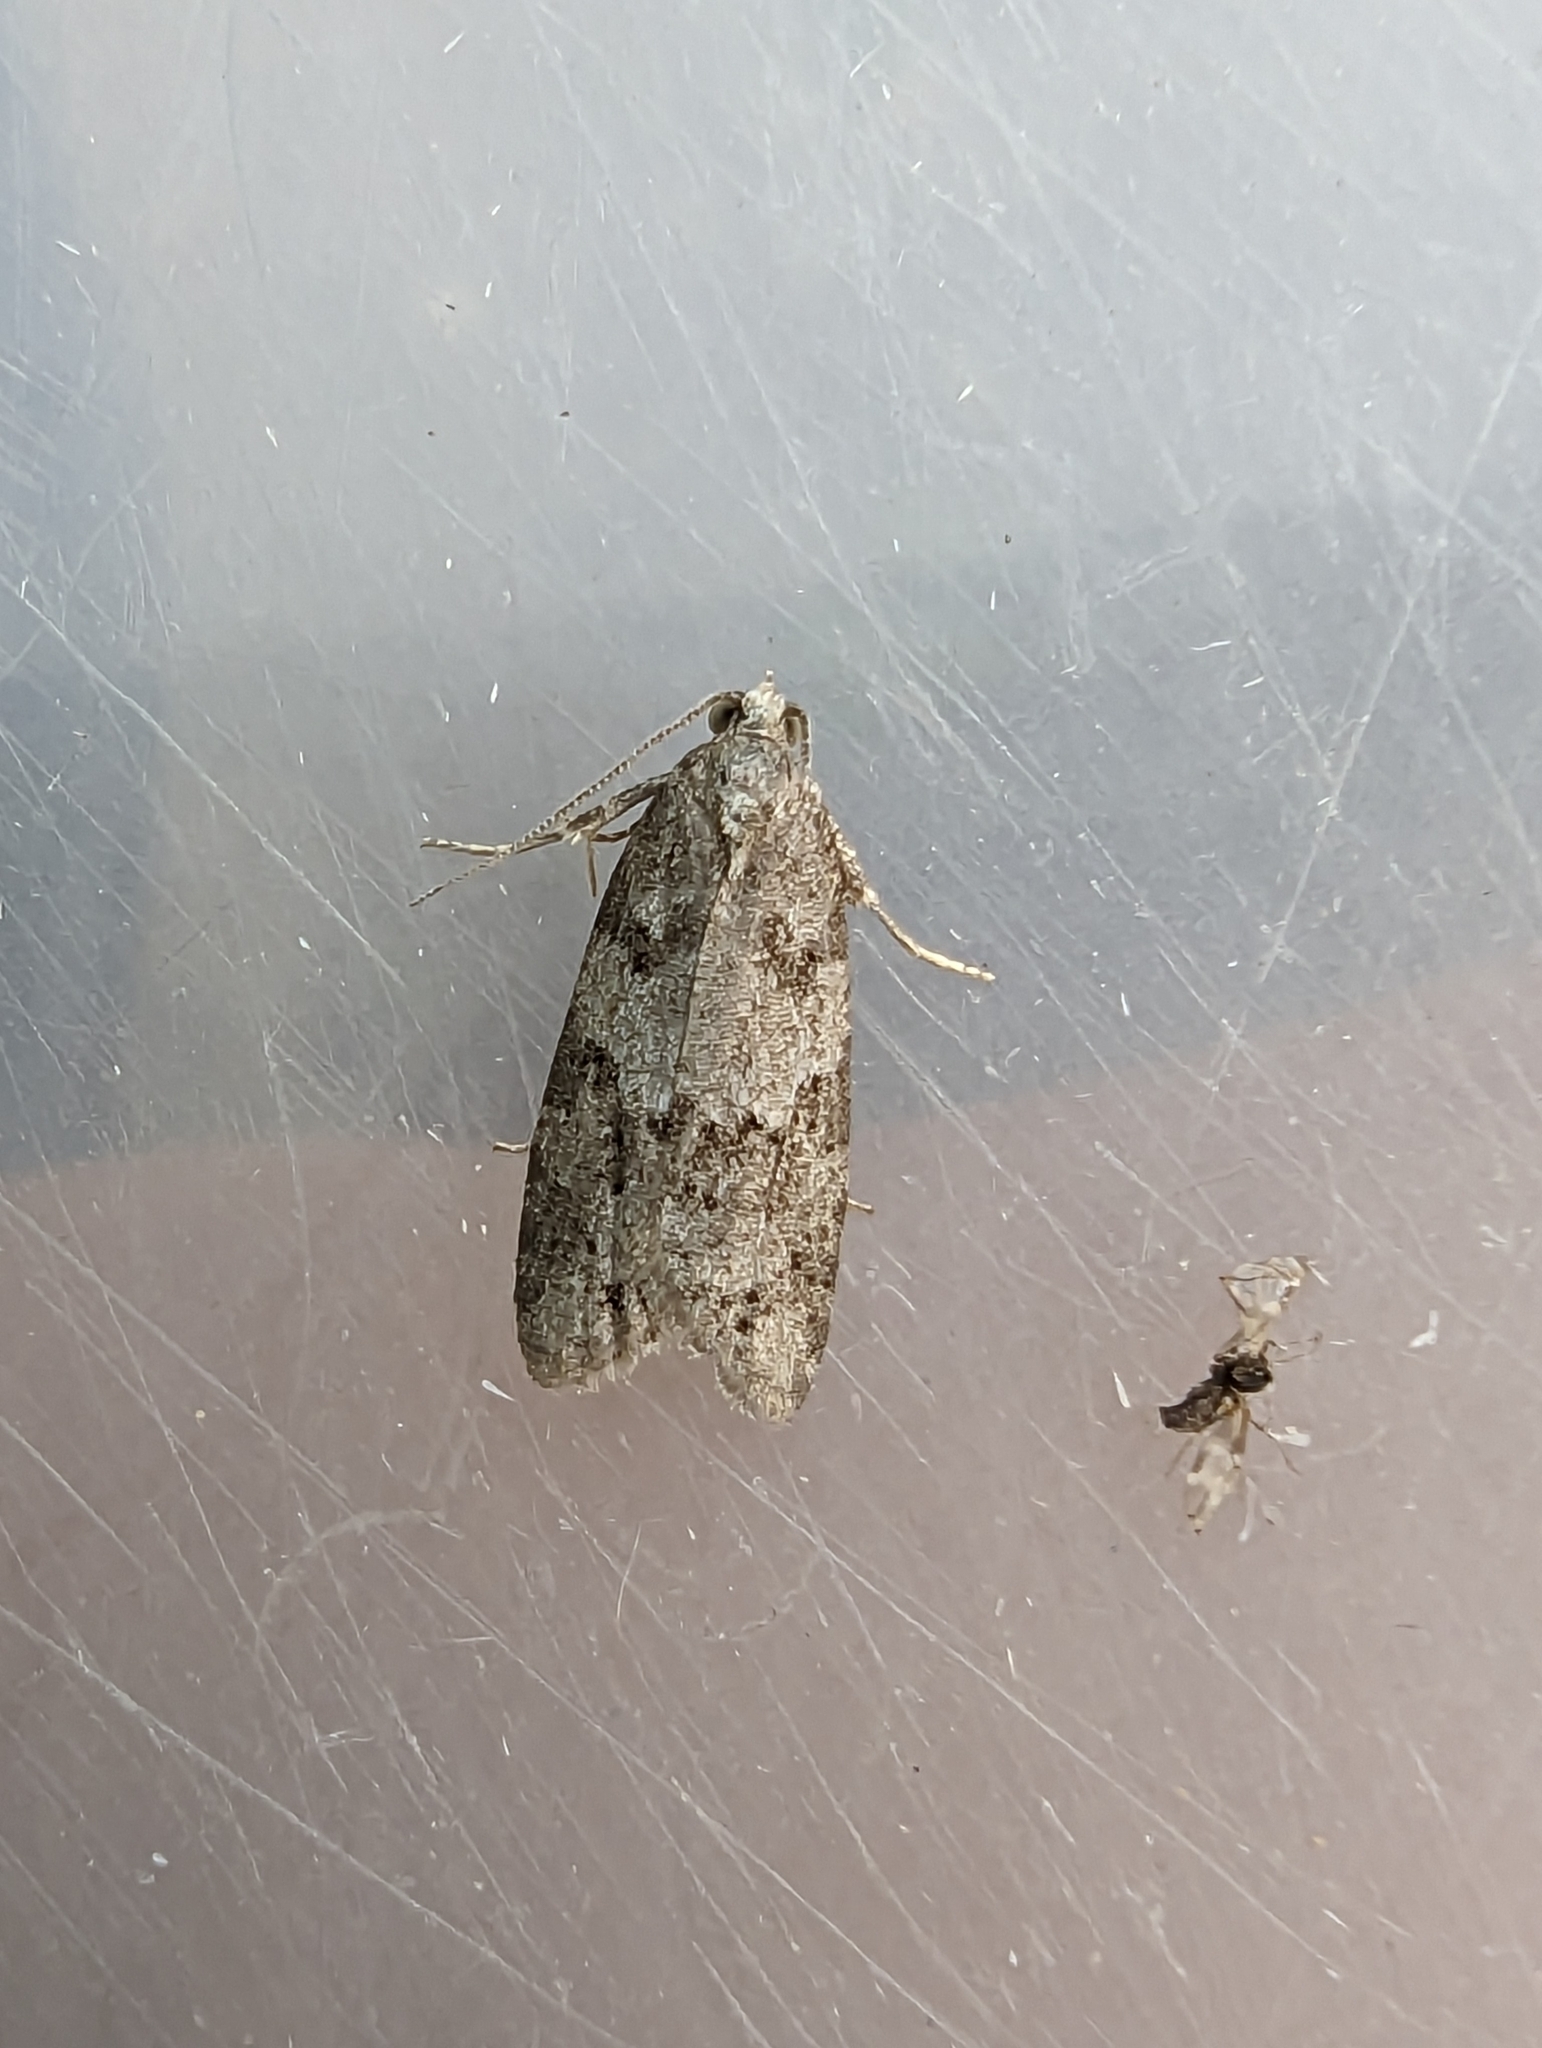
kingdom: Animalia
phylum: Arthropoda
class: Insecta
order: Lepidoptera
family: Tortricidae
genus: Cnephasia
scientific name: Cnephasia stephensiana
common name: Grey tortrix
